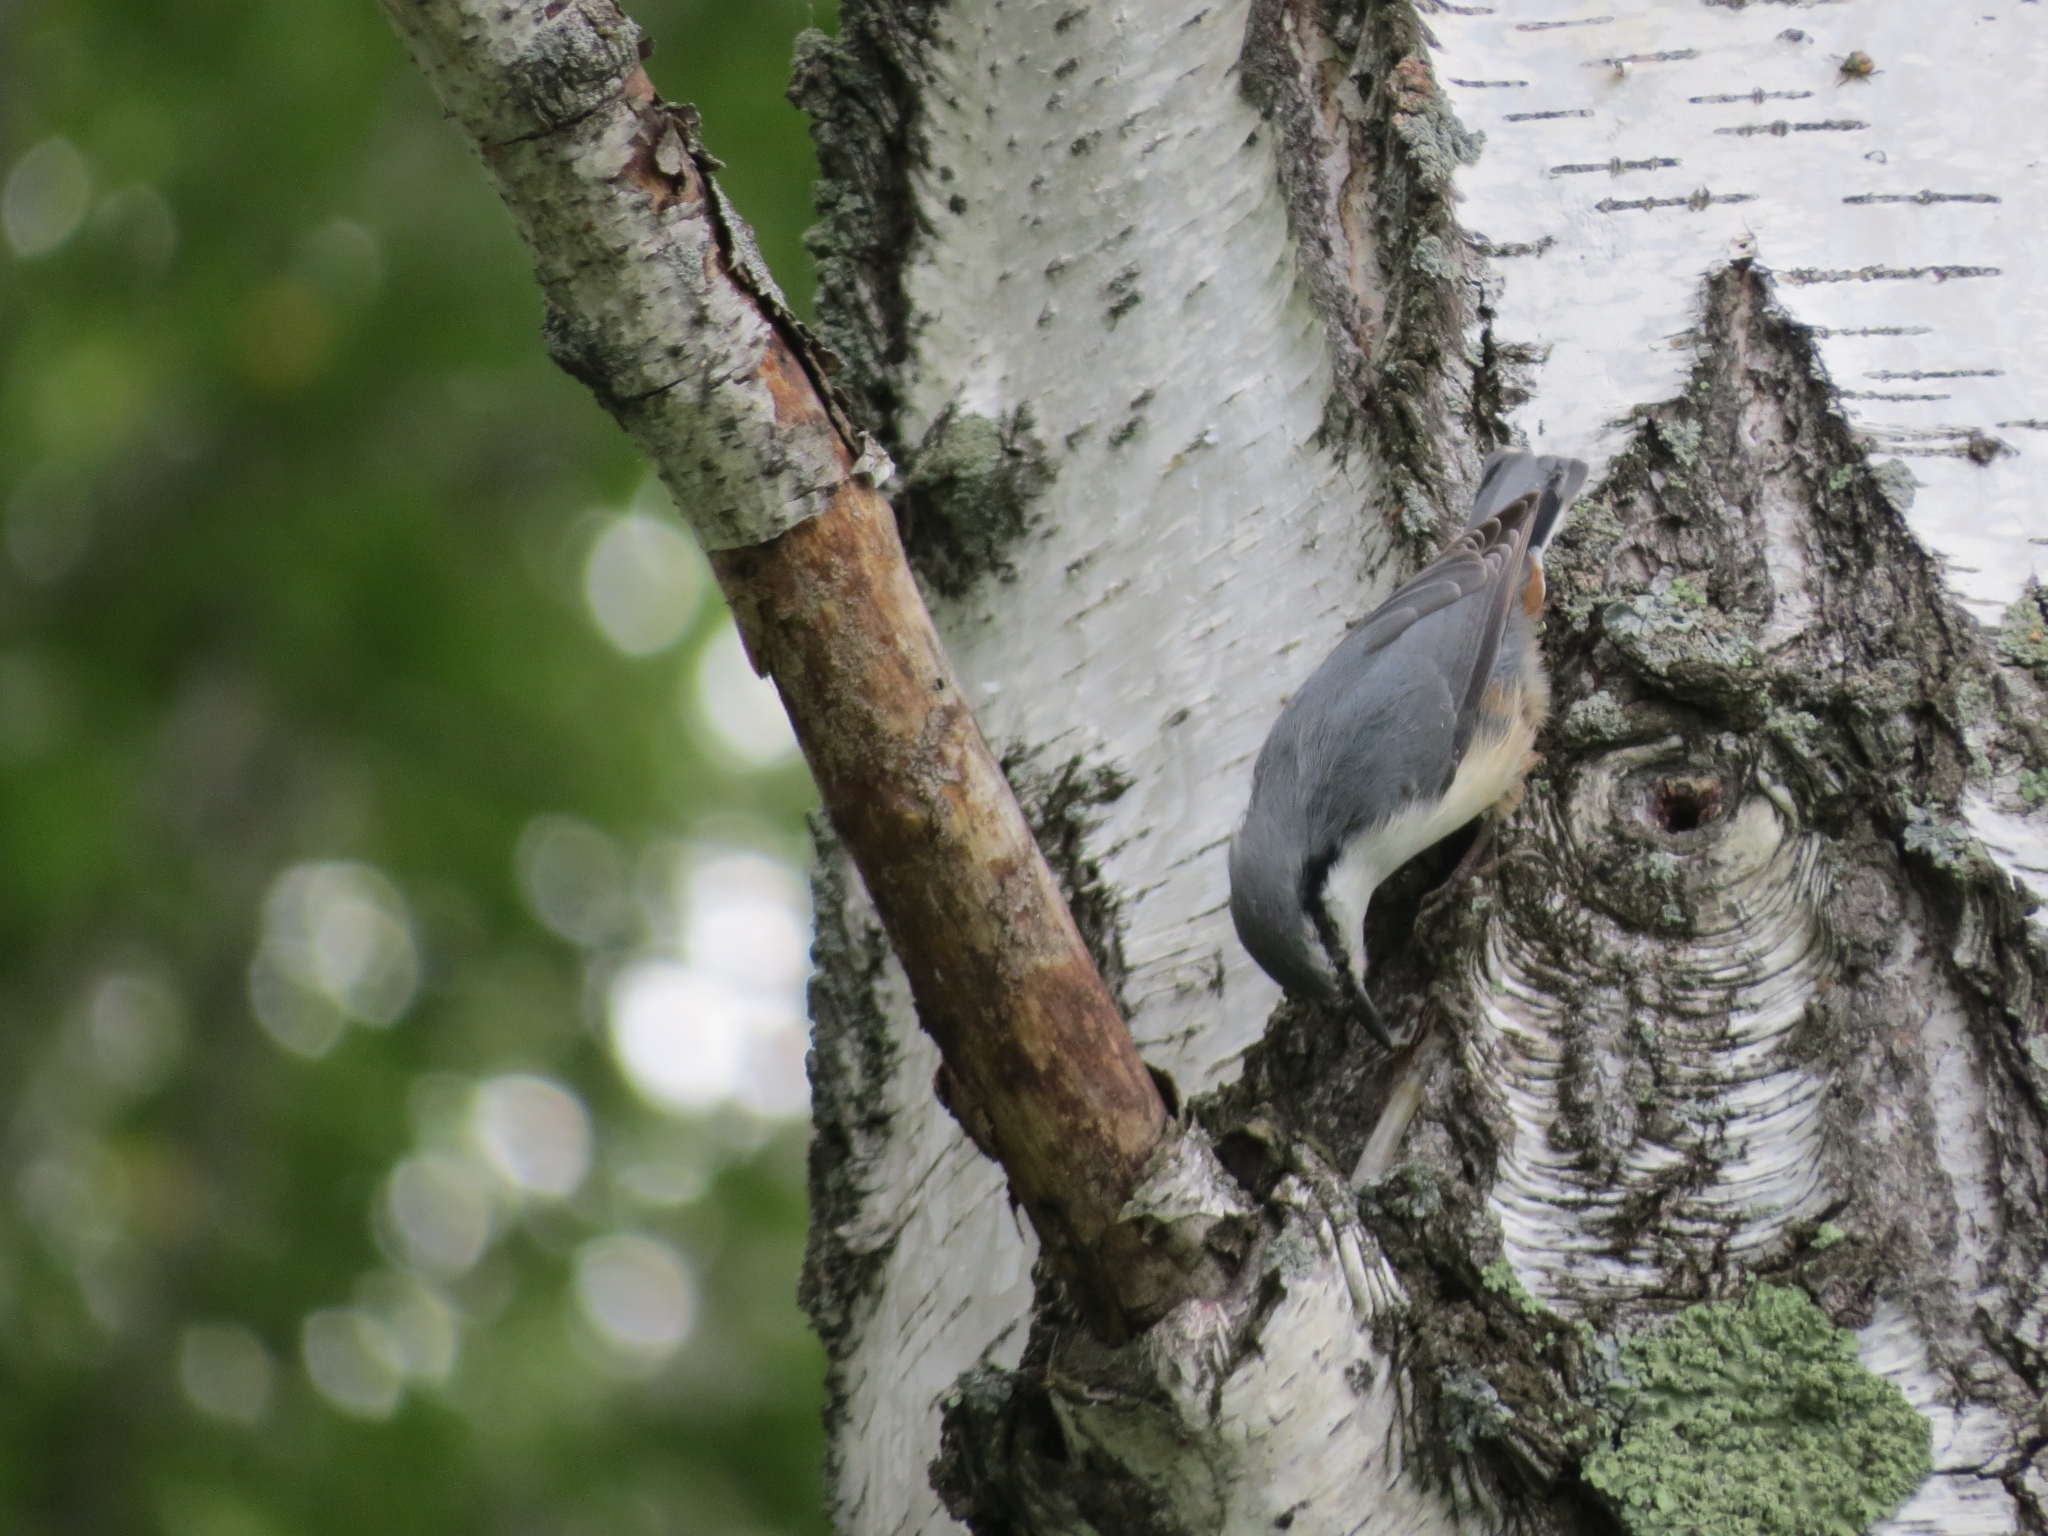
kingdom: Animalia
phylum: Chordata
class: Aves
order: Passeriformes
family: Sittidae
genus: Sitta
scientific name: Sitta europaea
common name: Eurasian nuthatch
